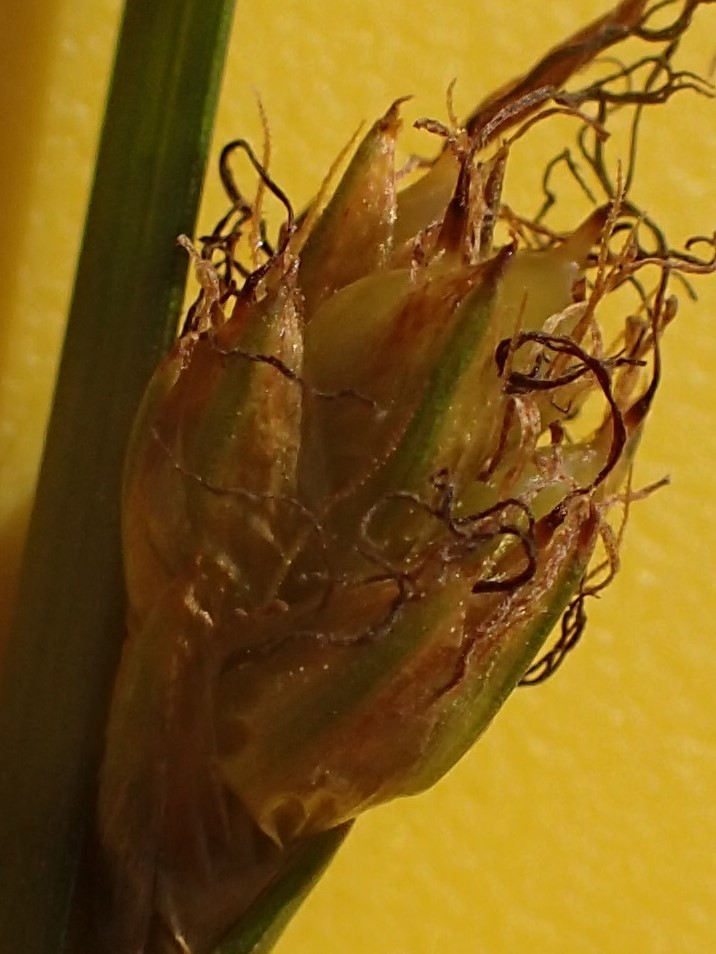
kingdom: Plantae
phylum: Tracheophyta
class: Liliopsida
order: Poales
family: Cyperaceae
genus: Schoenoplectus
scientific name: Schoenoplectus torreyi
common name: Torrey's bulrush
